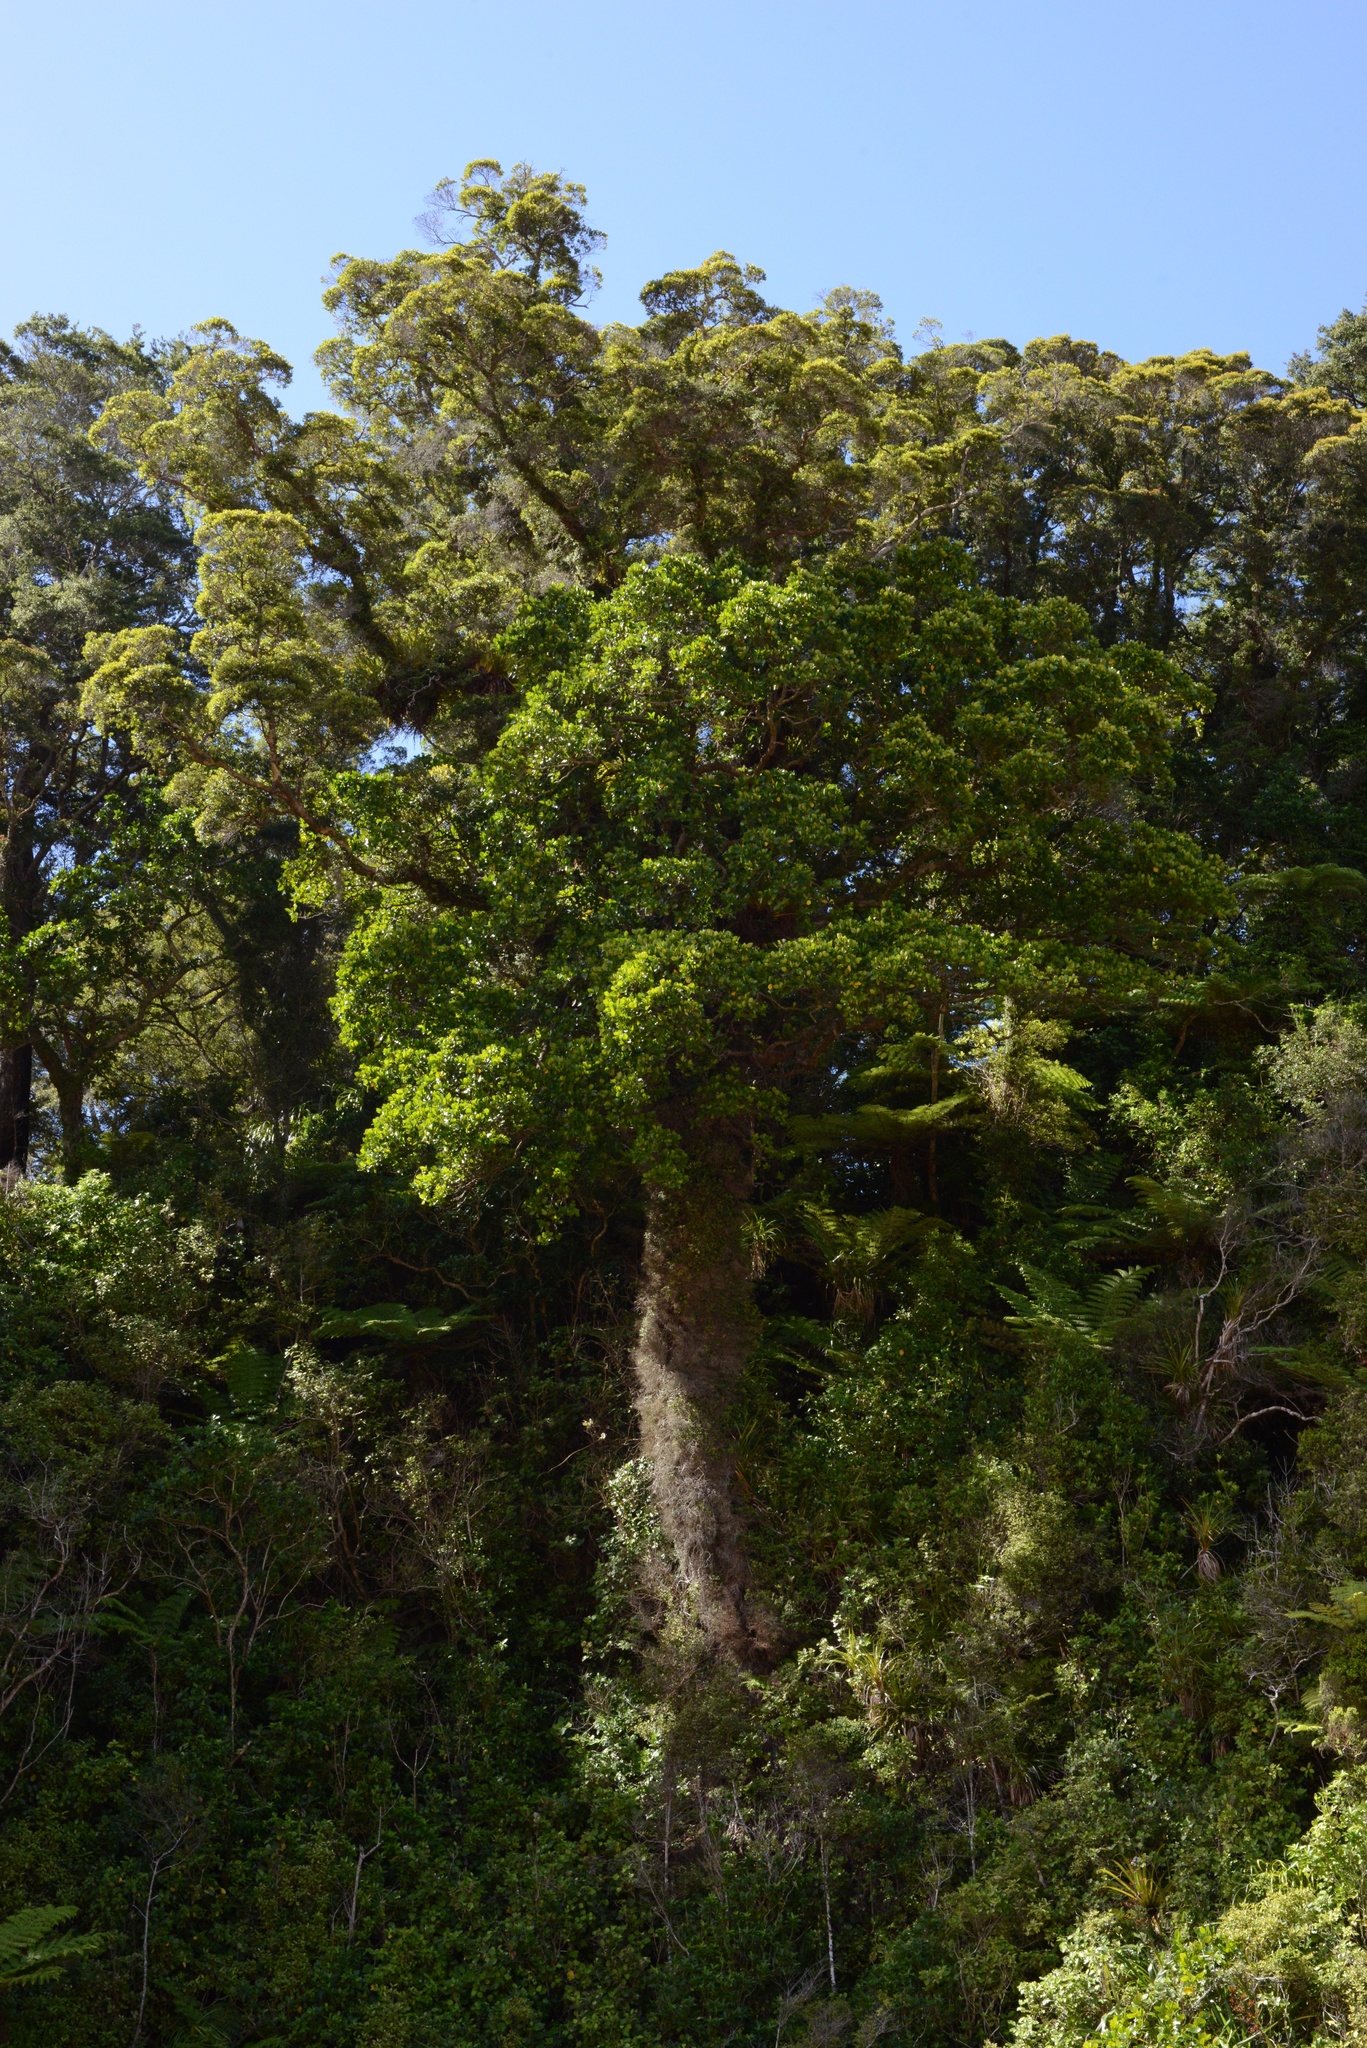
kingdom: Plantae
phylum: Tracheophyta
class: Magnoliopsida
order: Apiales
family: Griseliniaceae
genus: Griselinia
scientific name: Griselinia lucida
